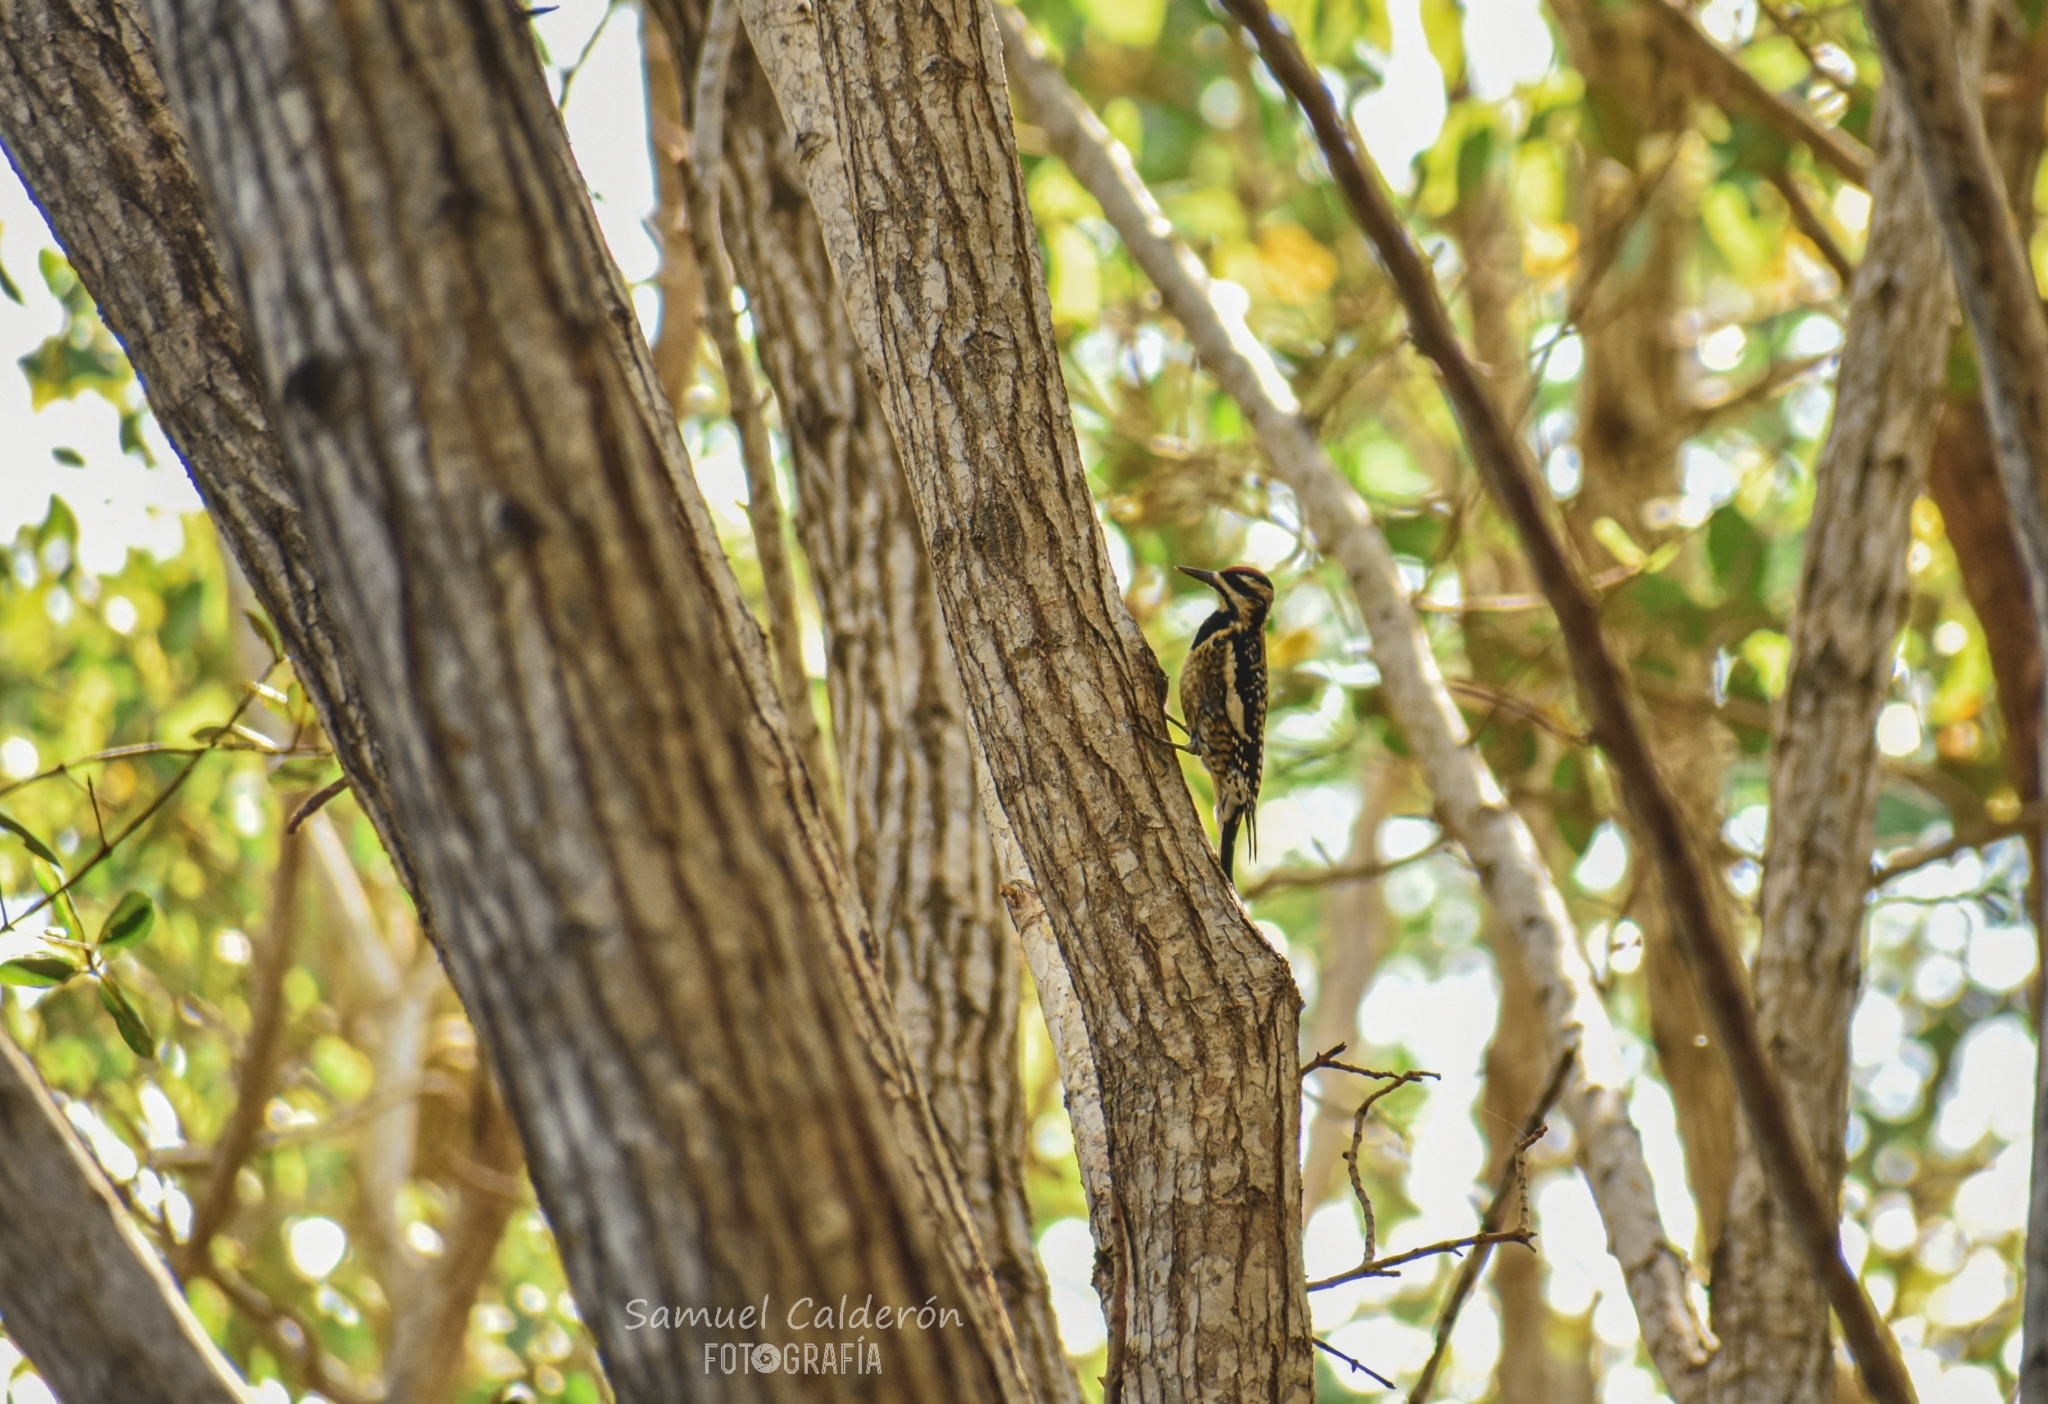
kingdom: Animalia
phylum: Chordata
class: Aves
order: Piciformes
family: Picidae
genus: Sphyrapicus
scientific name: Sphyrapicus varius
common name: Yellow-bellied sapsucker
